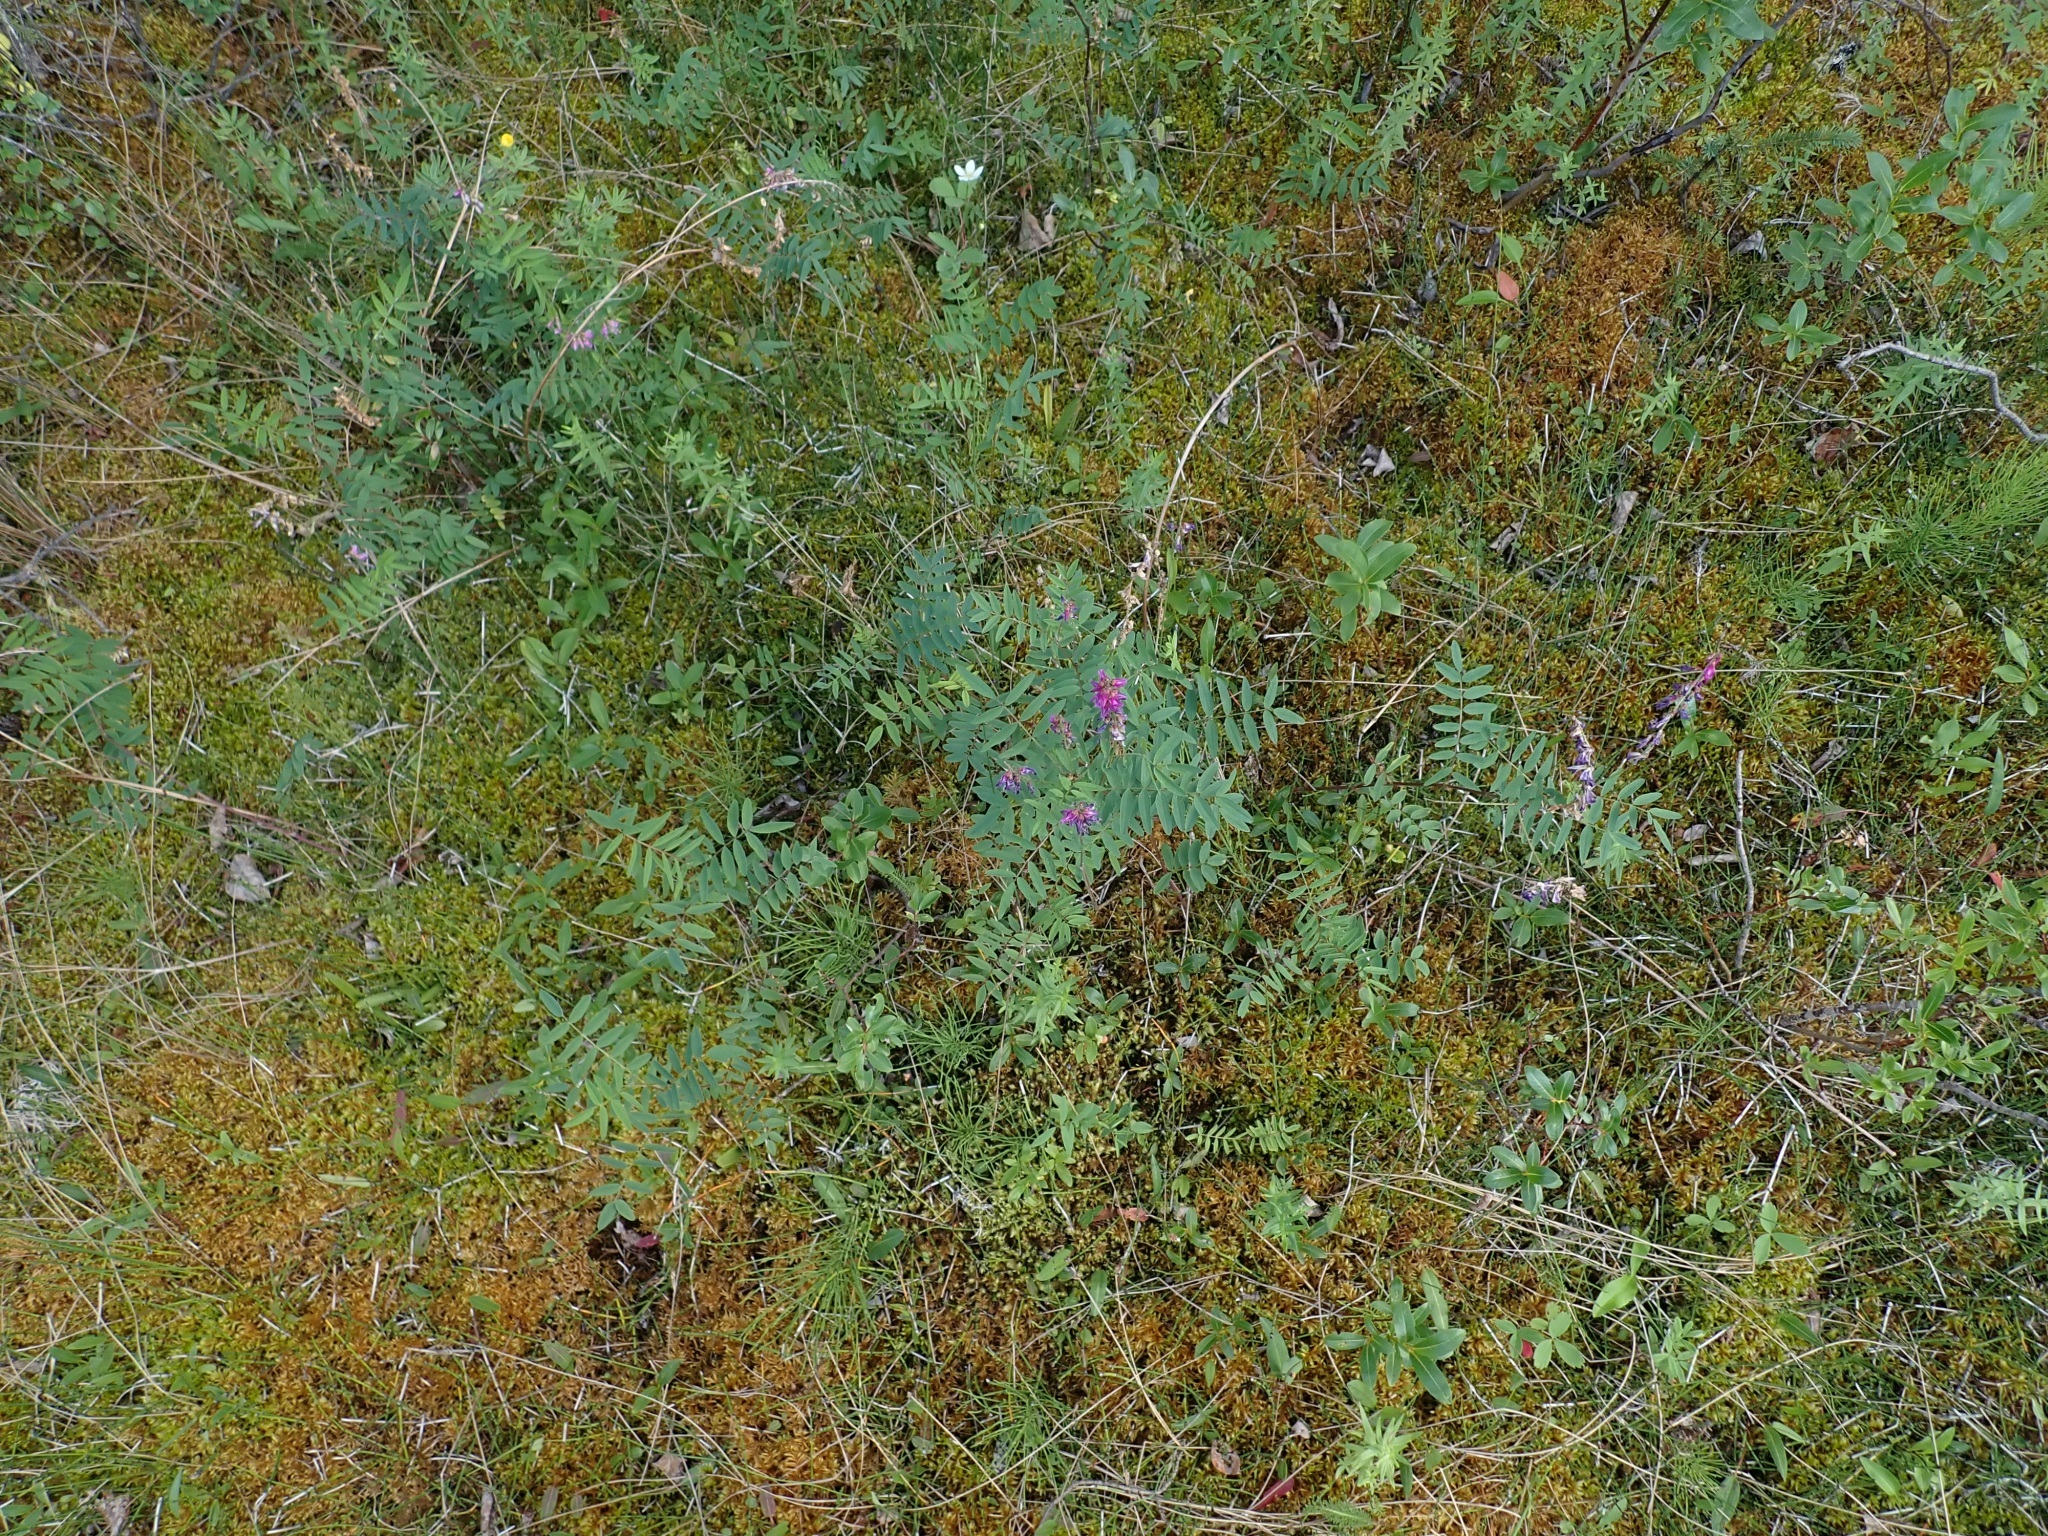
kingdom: Plantae
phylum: Tracheophyta
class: Magnoliopsida
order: Fabales
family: Fabaceae
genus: Hedysarum
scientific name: Hedysarum alpinum
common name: Alpine sweet-vetch
